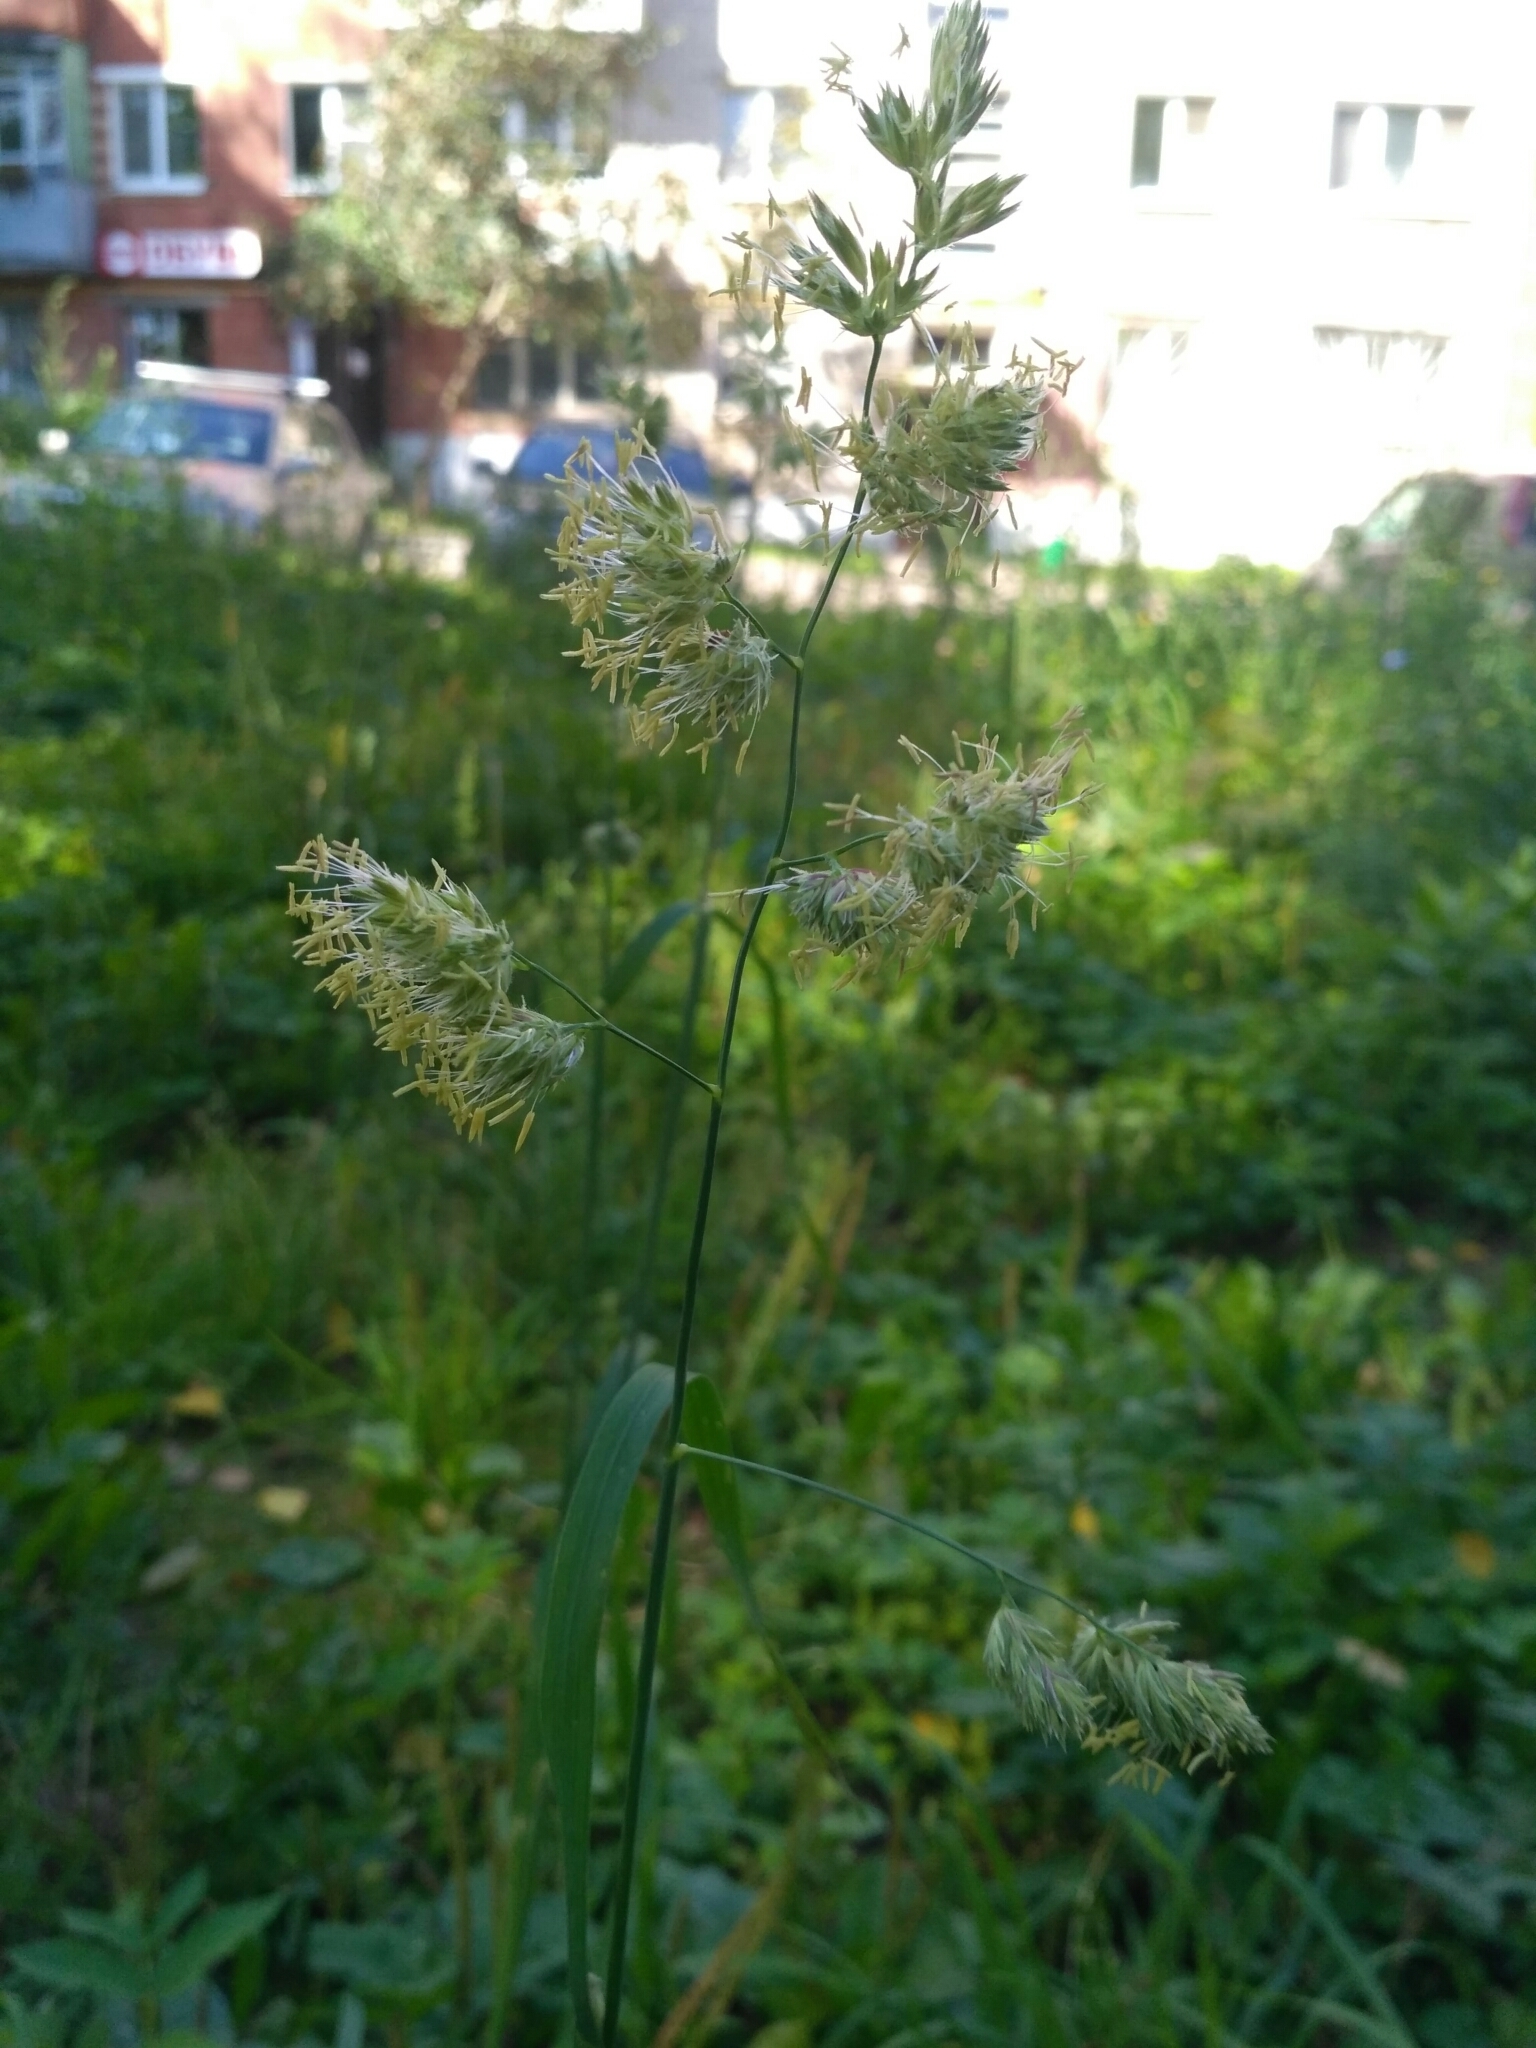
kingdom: Plantae
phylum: Tracheophyta
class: Liliopsida
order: Poales
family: Poaceae
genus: Dactylis
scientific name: Dactylis glomerata
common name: Orchardgrass
